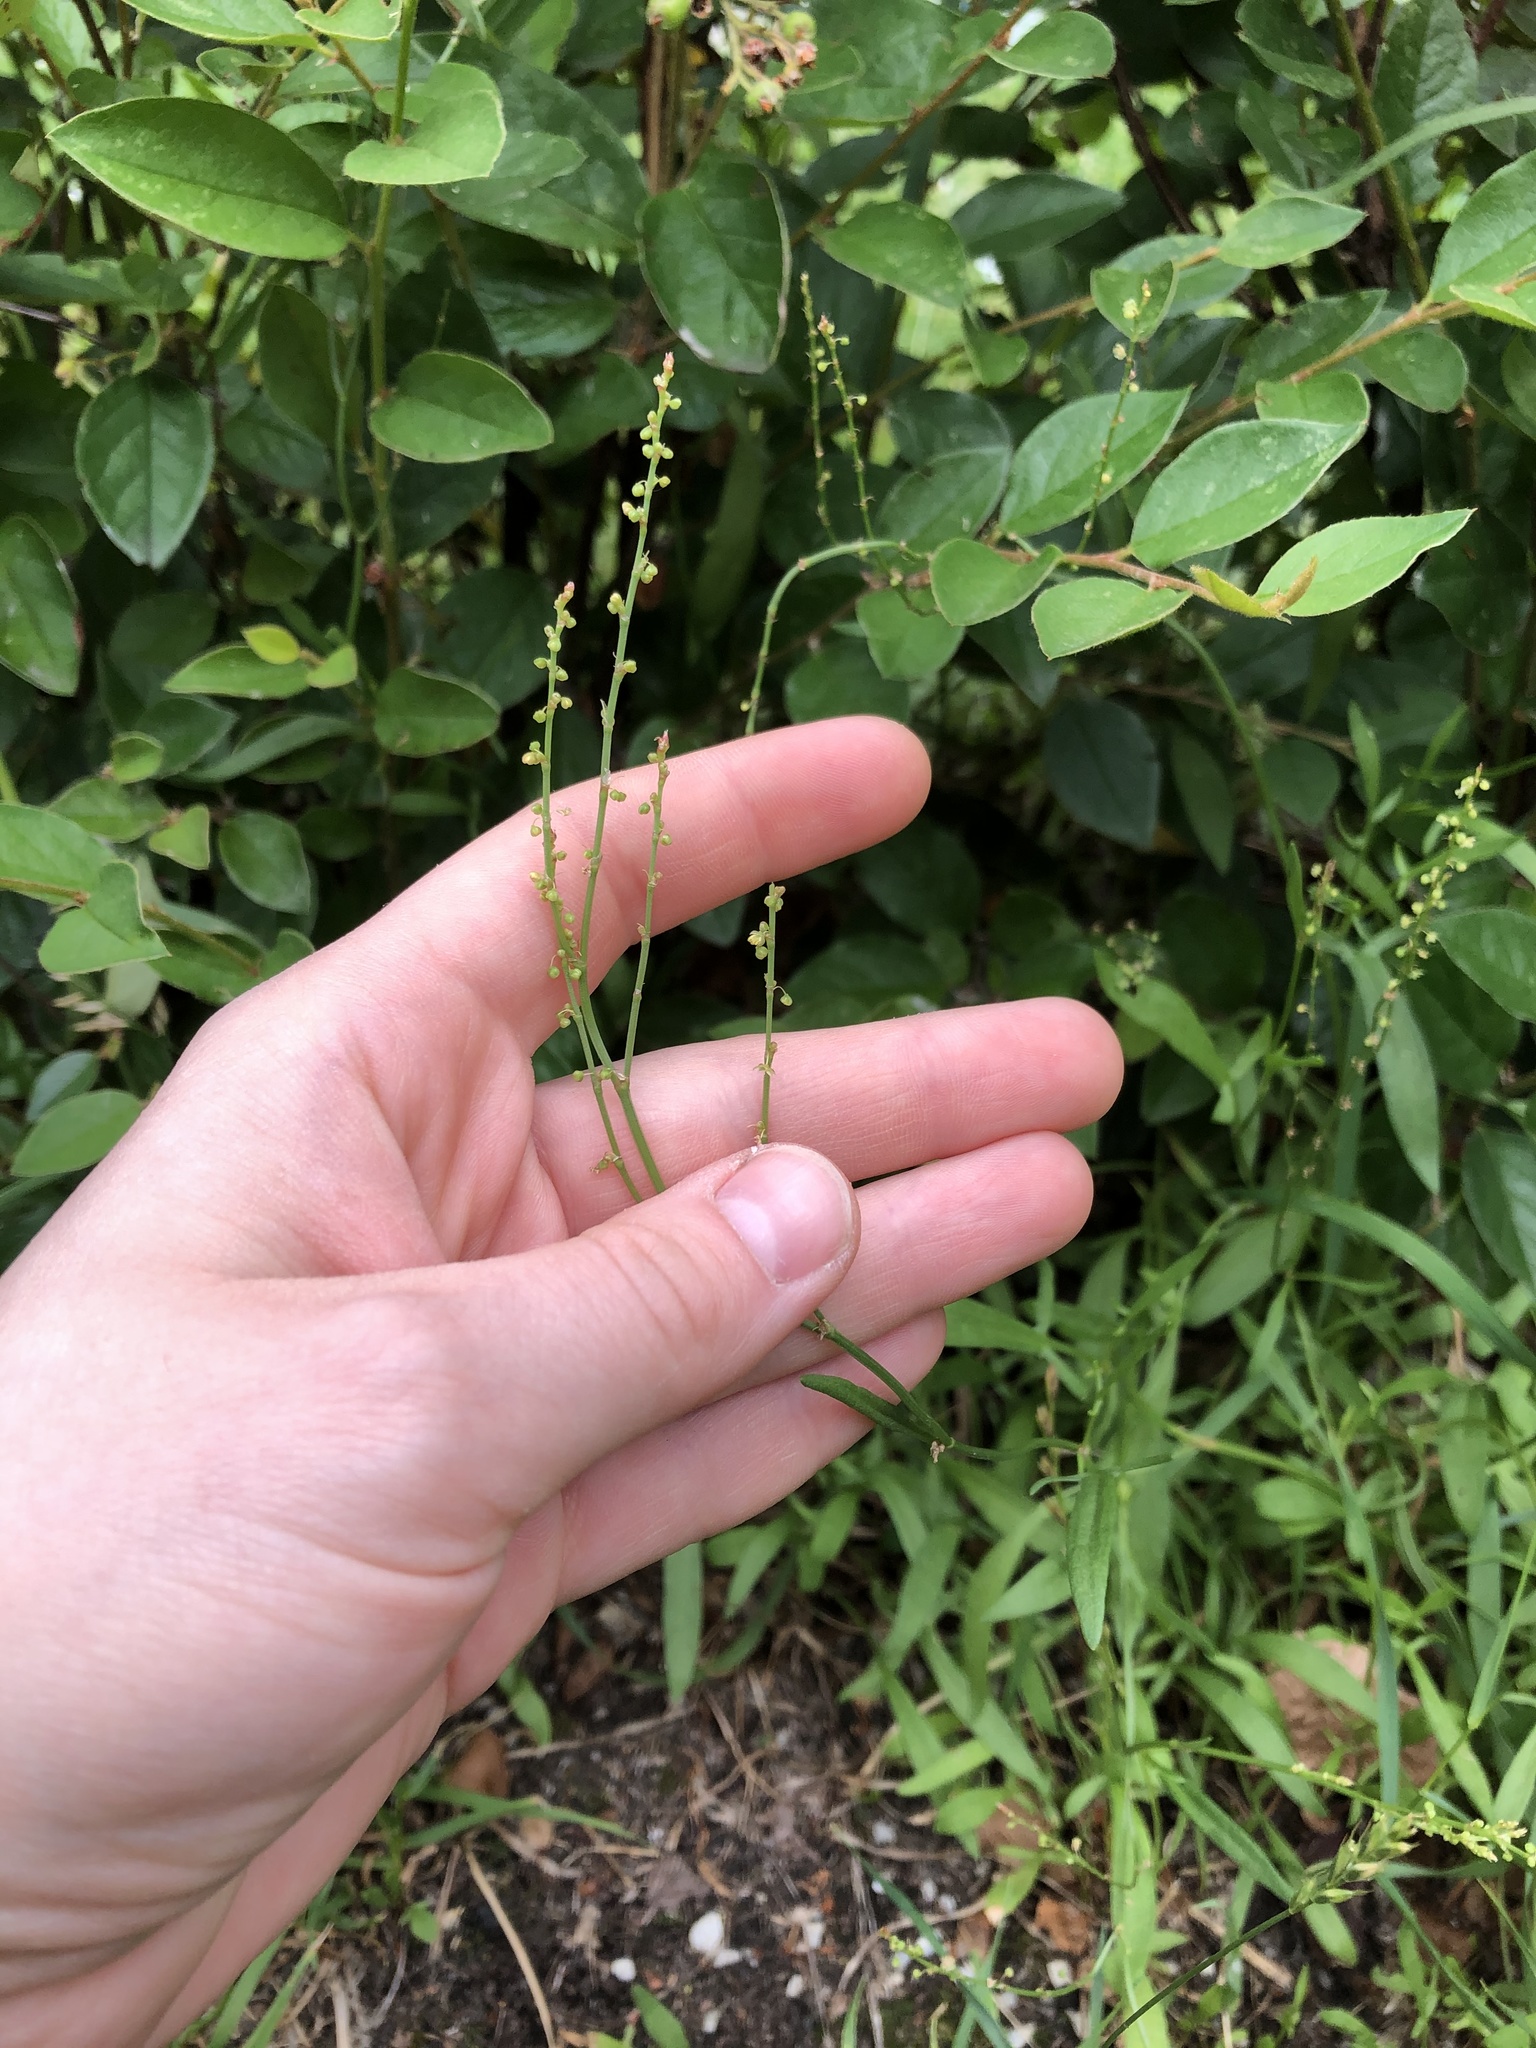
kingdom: Plantae
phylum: Tracheophyta
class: Magnoliopsida
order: Caryophyllales
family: Polygonaceae
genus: Rumex
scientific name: Rumex acetosella
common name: Common sheep sorrel
